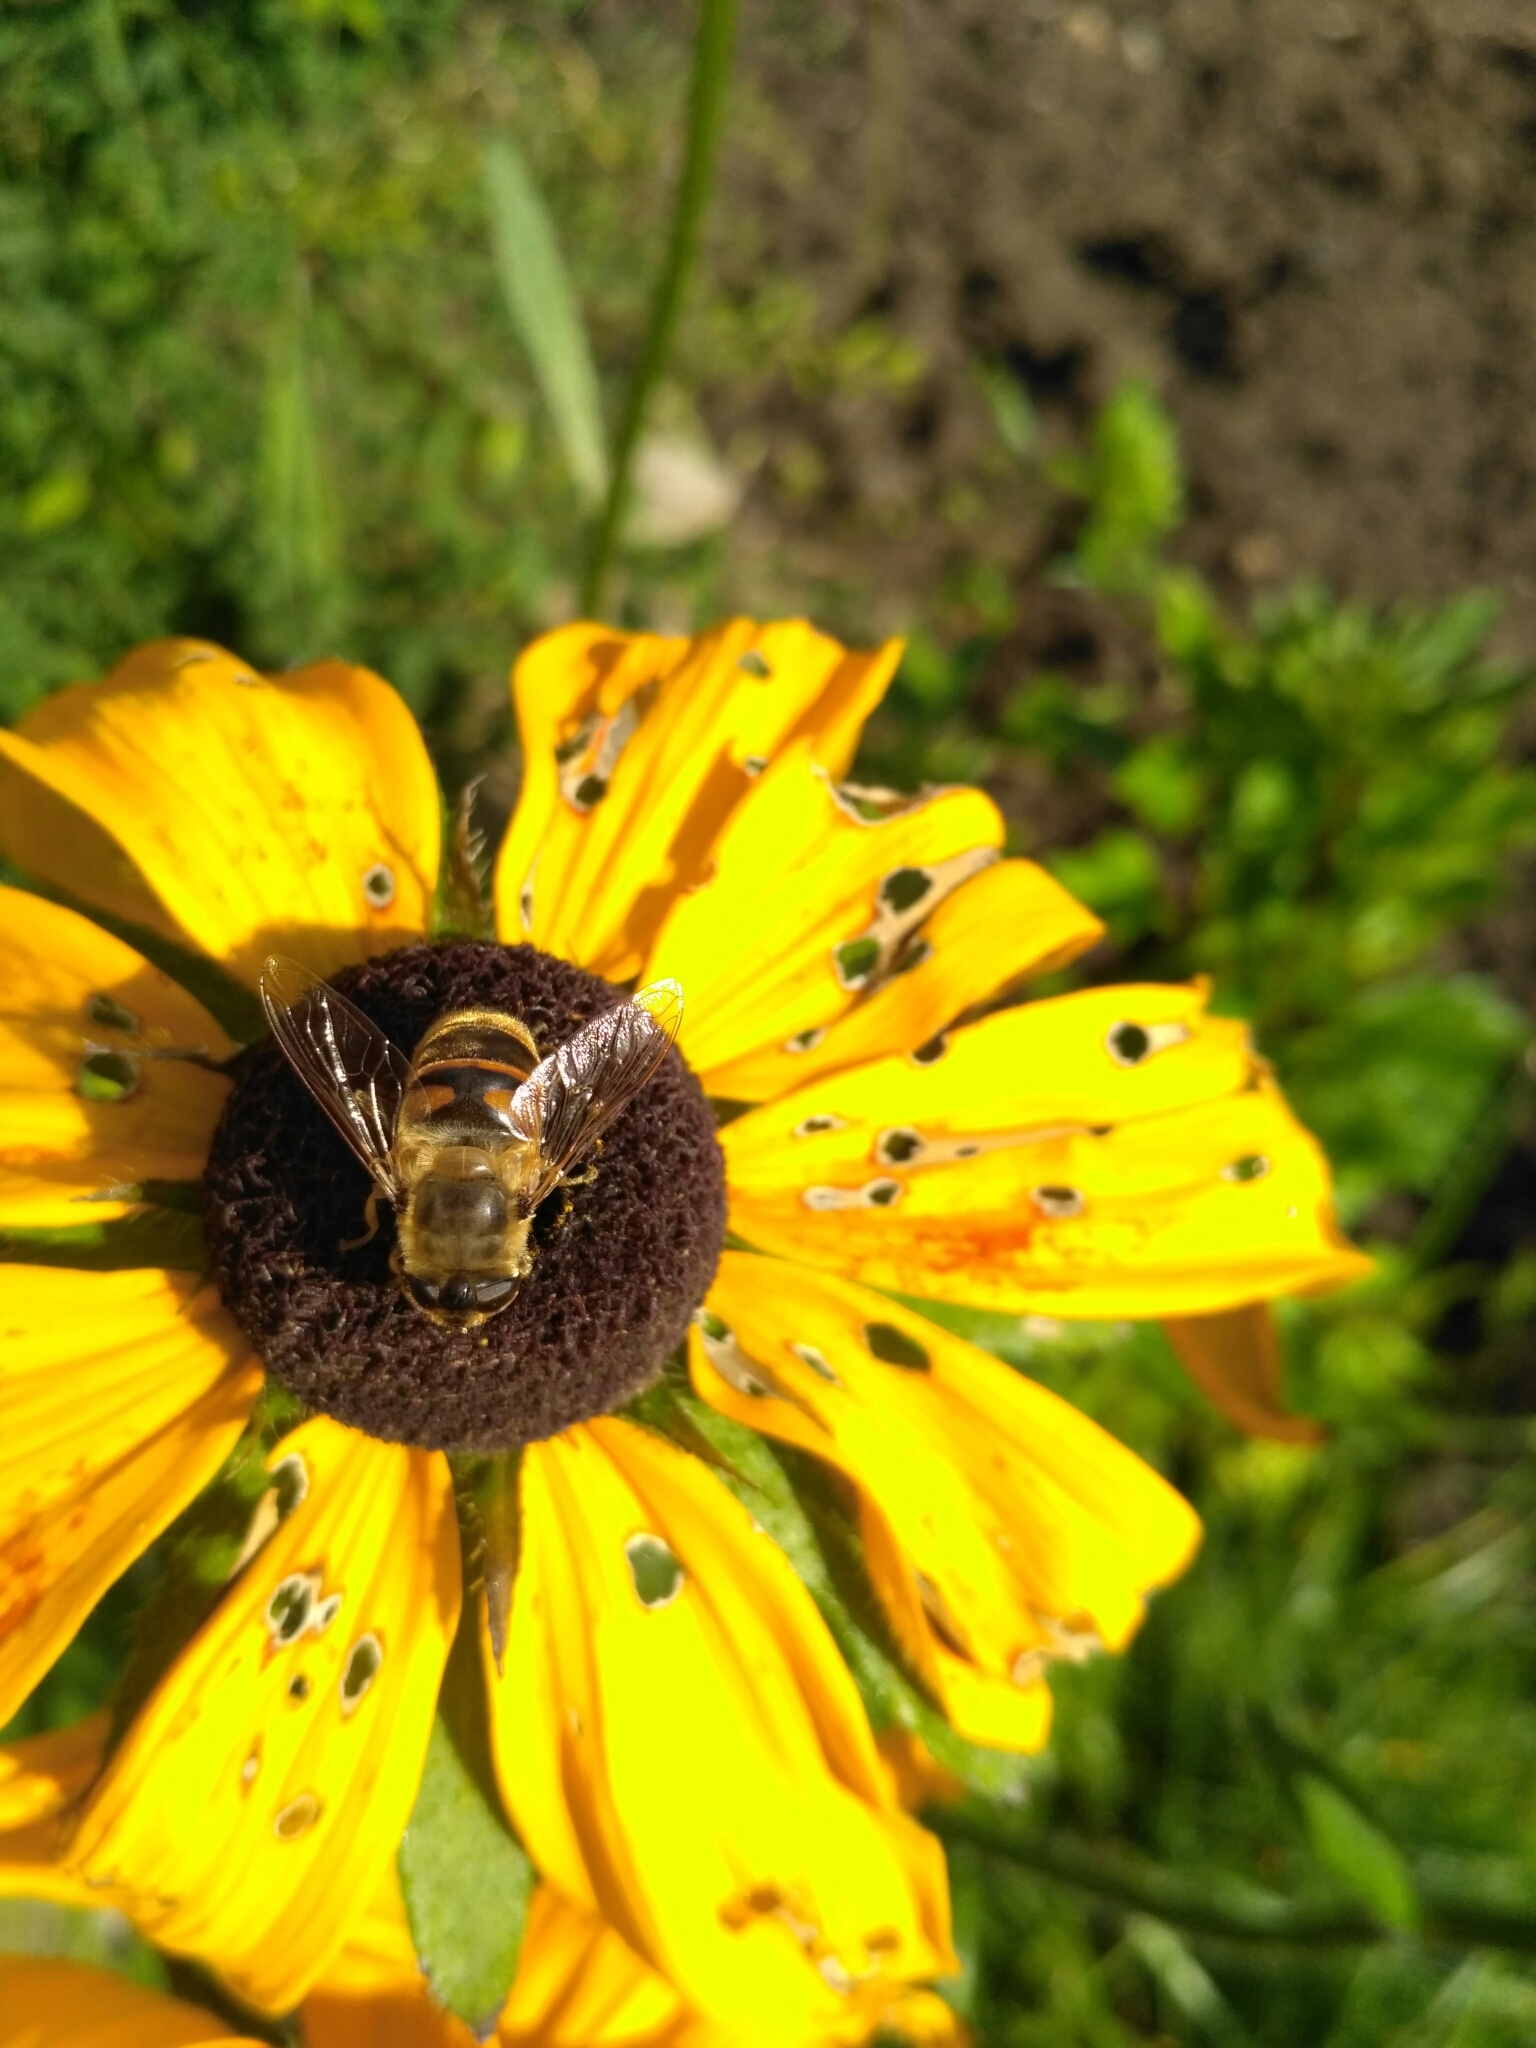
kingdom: Animalia
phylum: Arthropoda
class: Insecta
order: Diptera
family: Syrphidae
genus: Eristalis
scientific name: Eristalis tenax
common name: Drone fly
